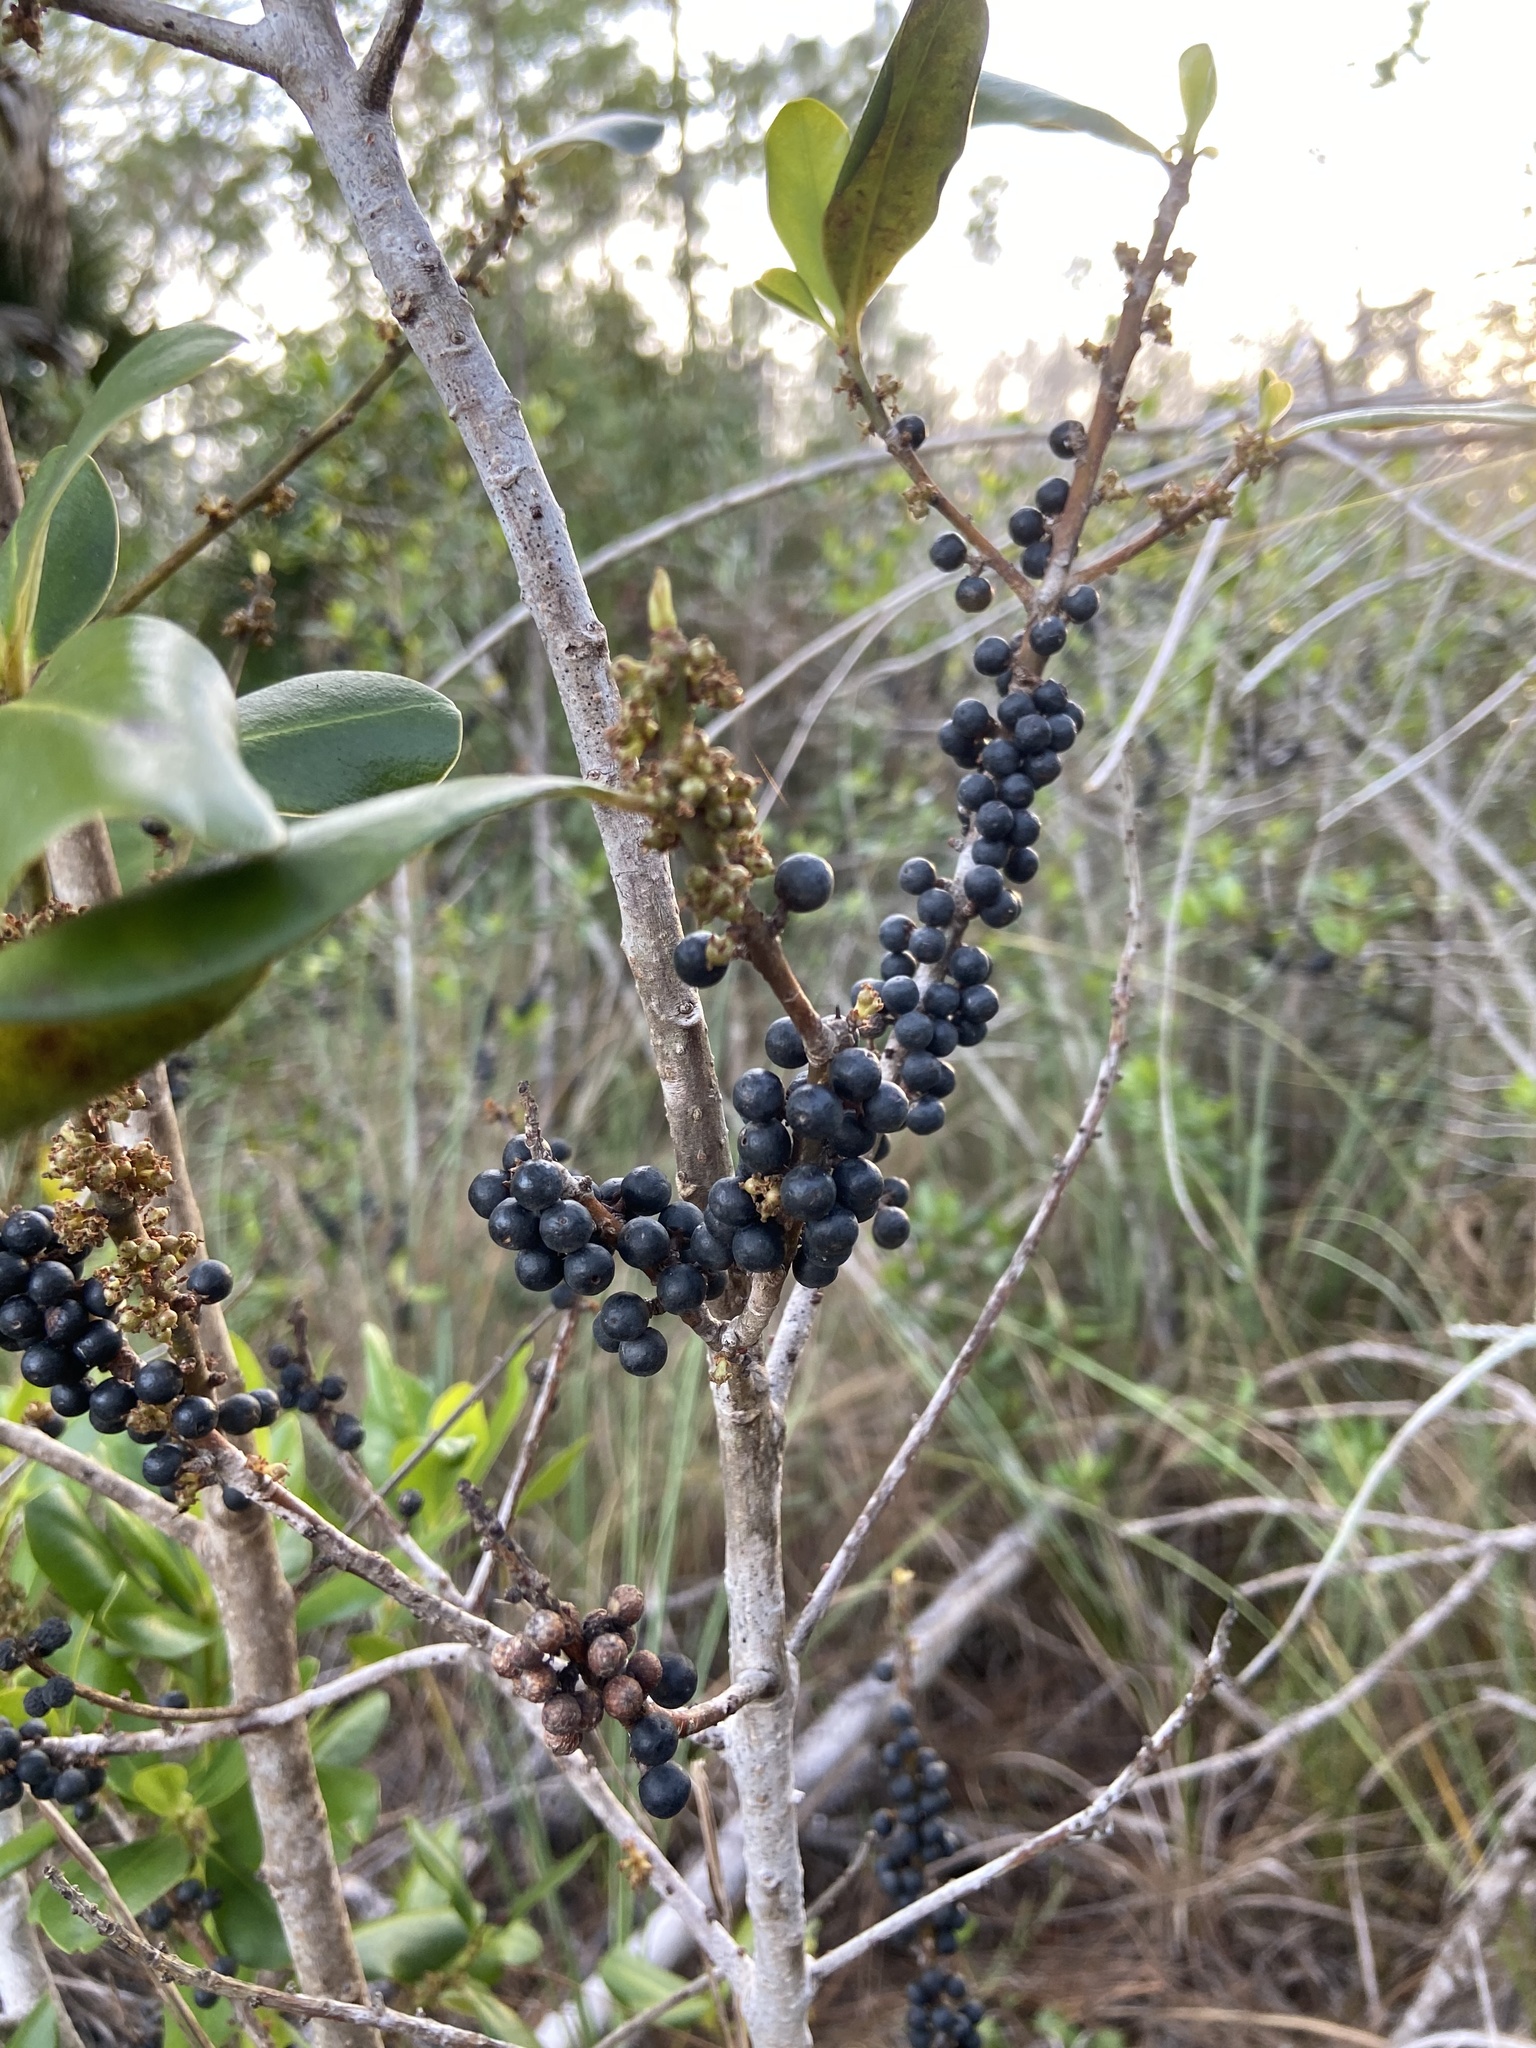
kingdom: Plantae
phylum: Tracheophyta
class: Magnoliopsida
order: Ericales
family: Primulaceae
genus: Myrsine
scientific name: Myrsine floridana
